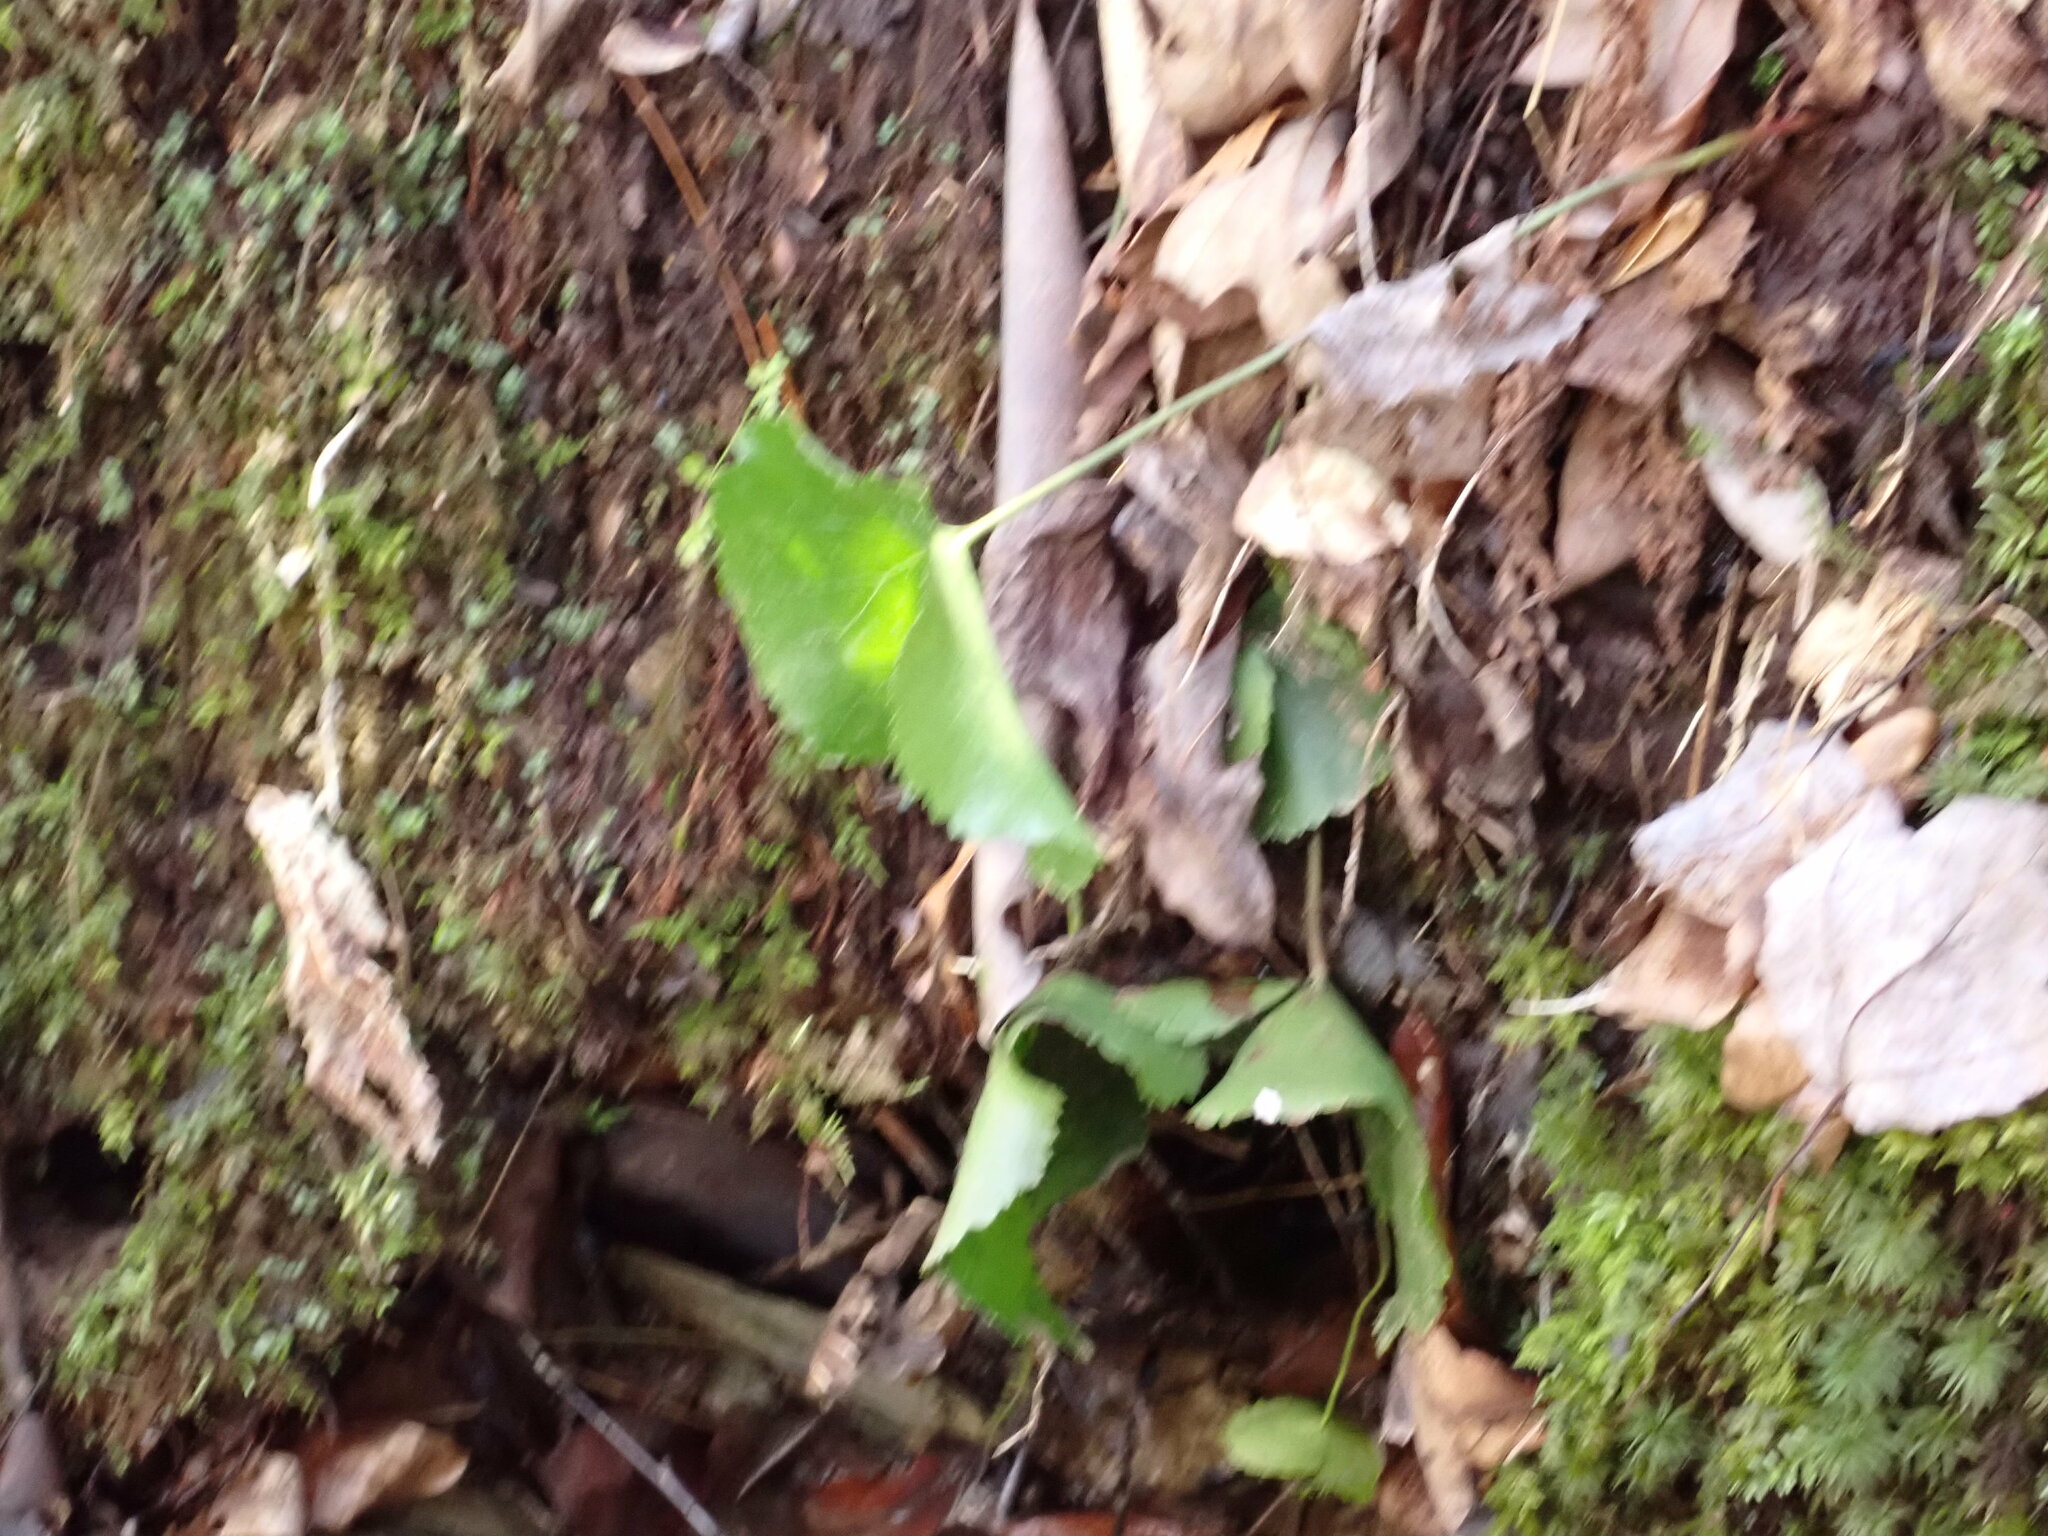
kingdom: Plantae
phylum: Tracheophyta
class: Magnoliopsida
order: Ericales
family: Diapensiaceae
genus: Galax
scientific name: Galax urceolata
